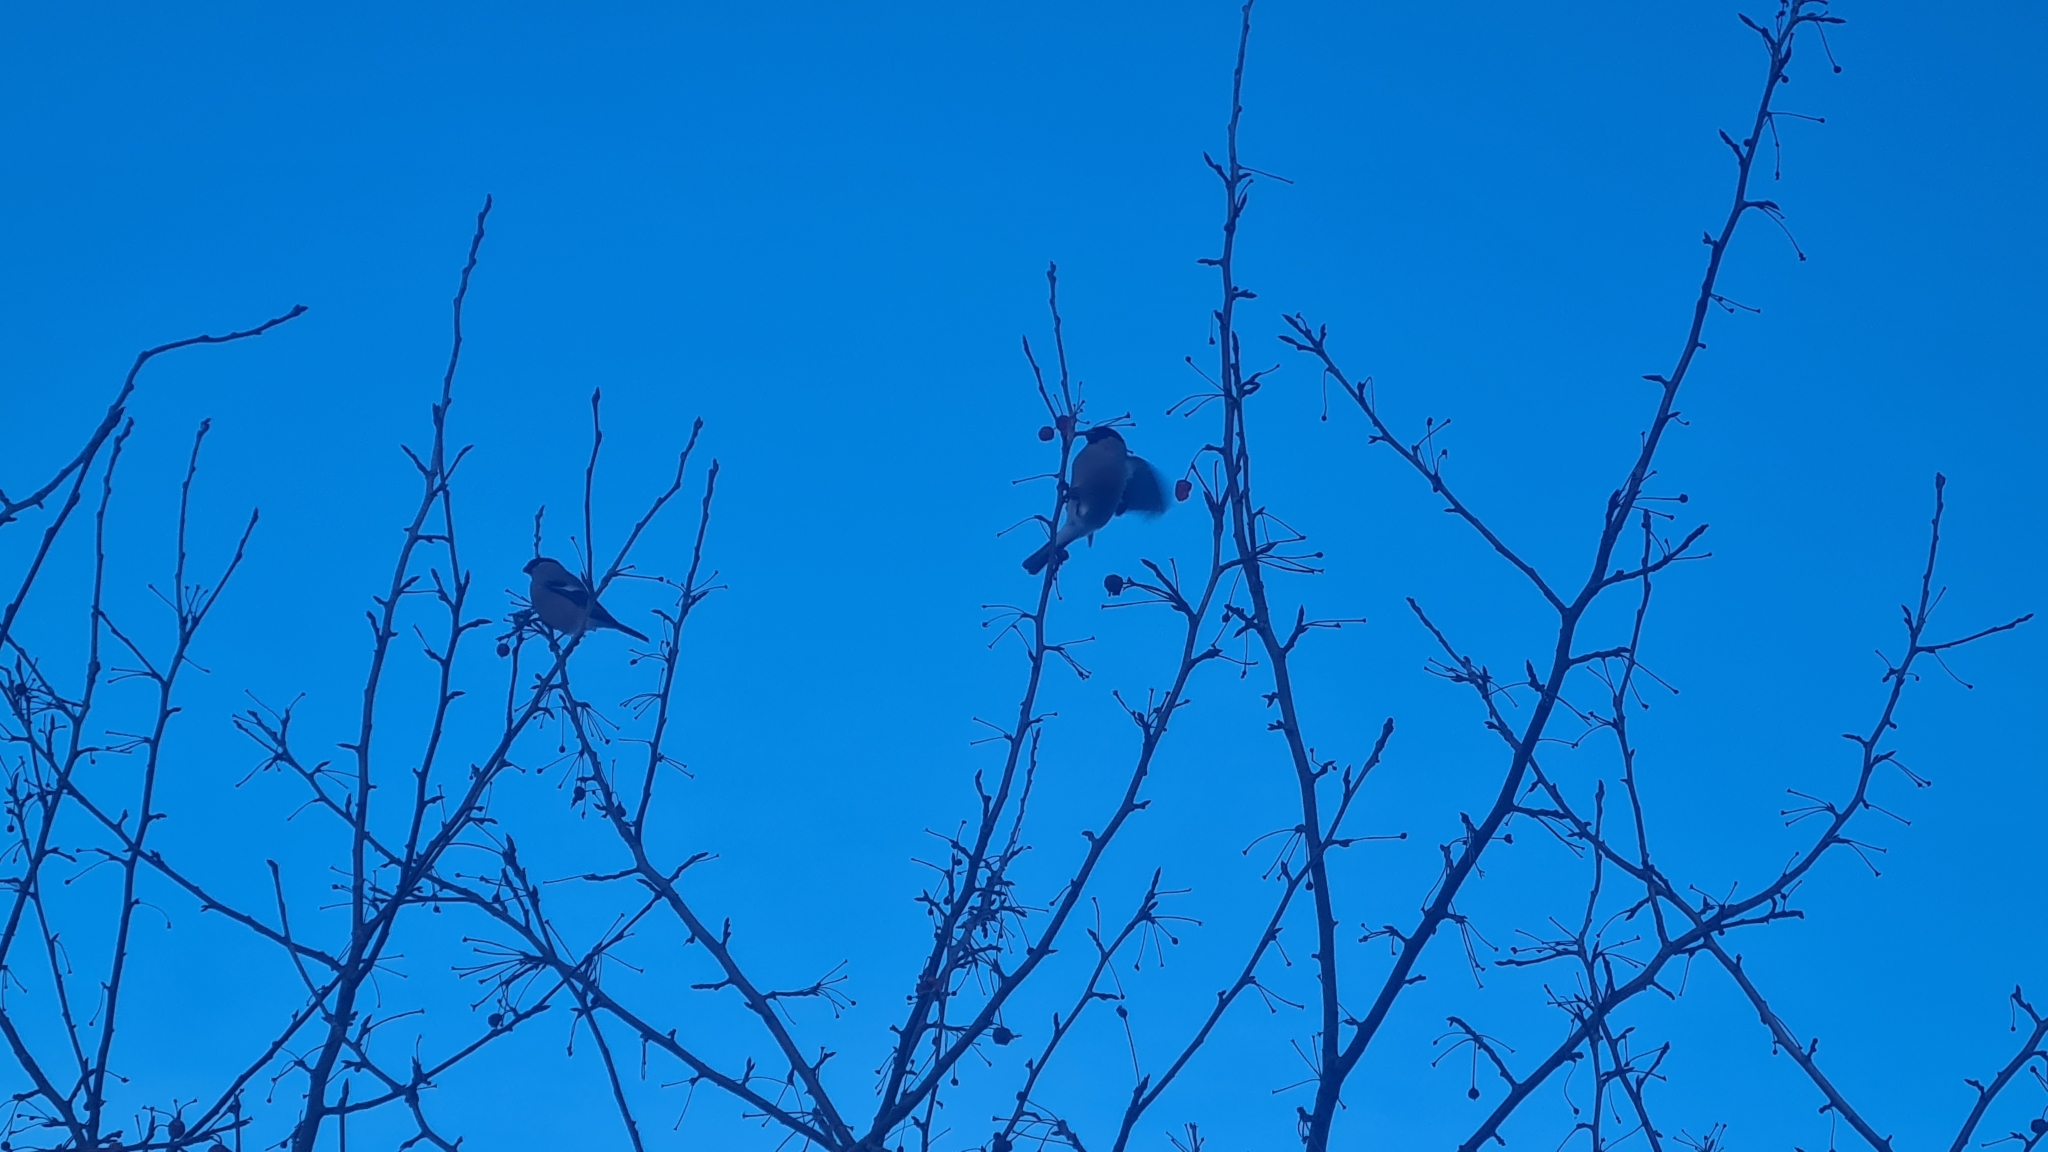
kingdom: Animalia
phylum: Chordata
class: Aves
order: Passeriformes
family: Fringillidae
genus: Pyrrhula
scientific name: Pyrrhula pyrrhula
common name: Eurasian bullfinch
